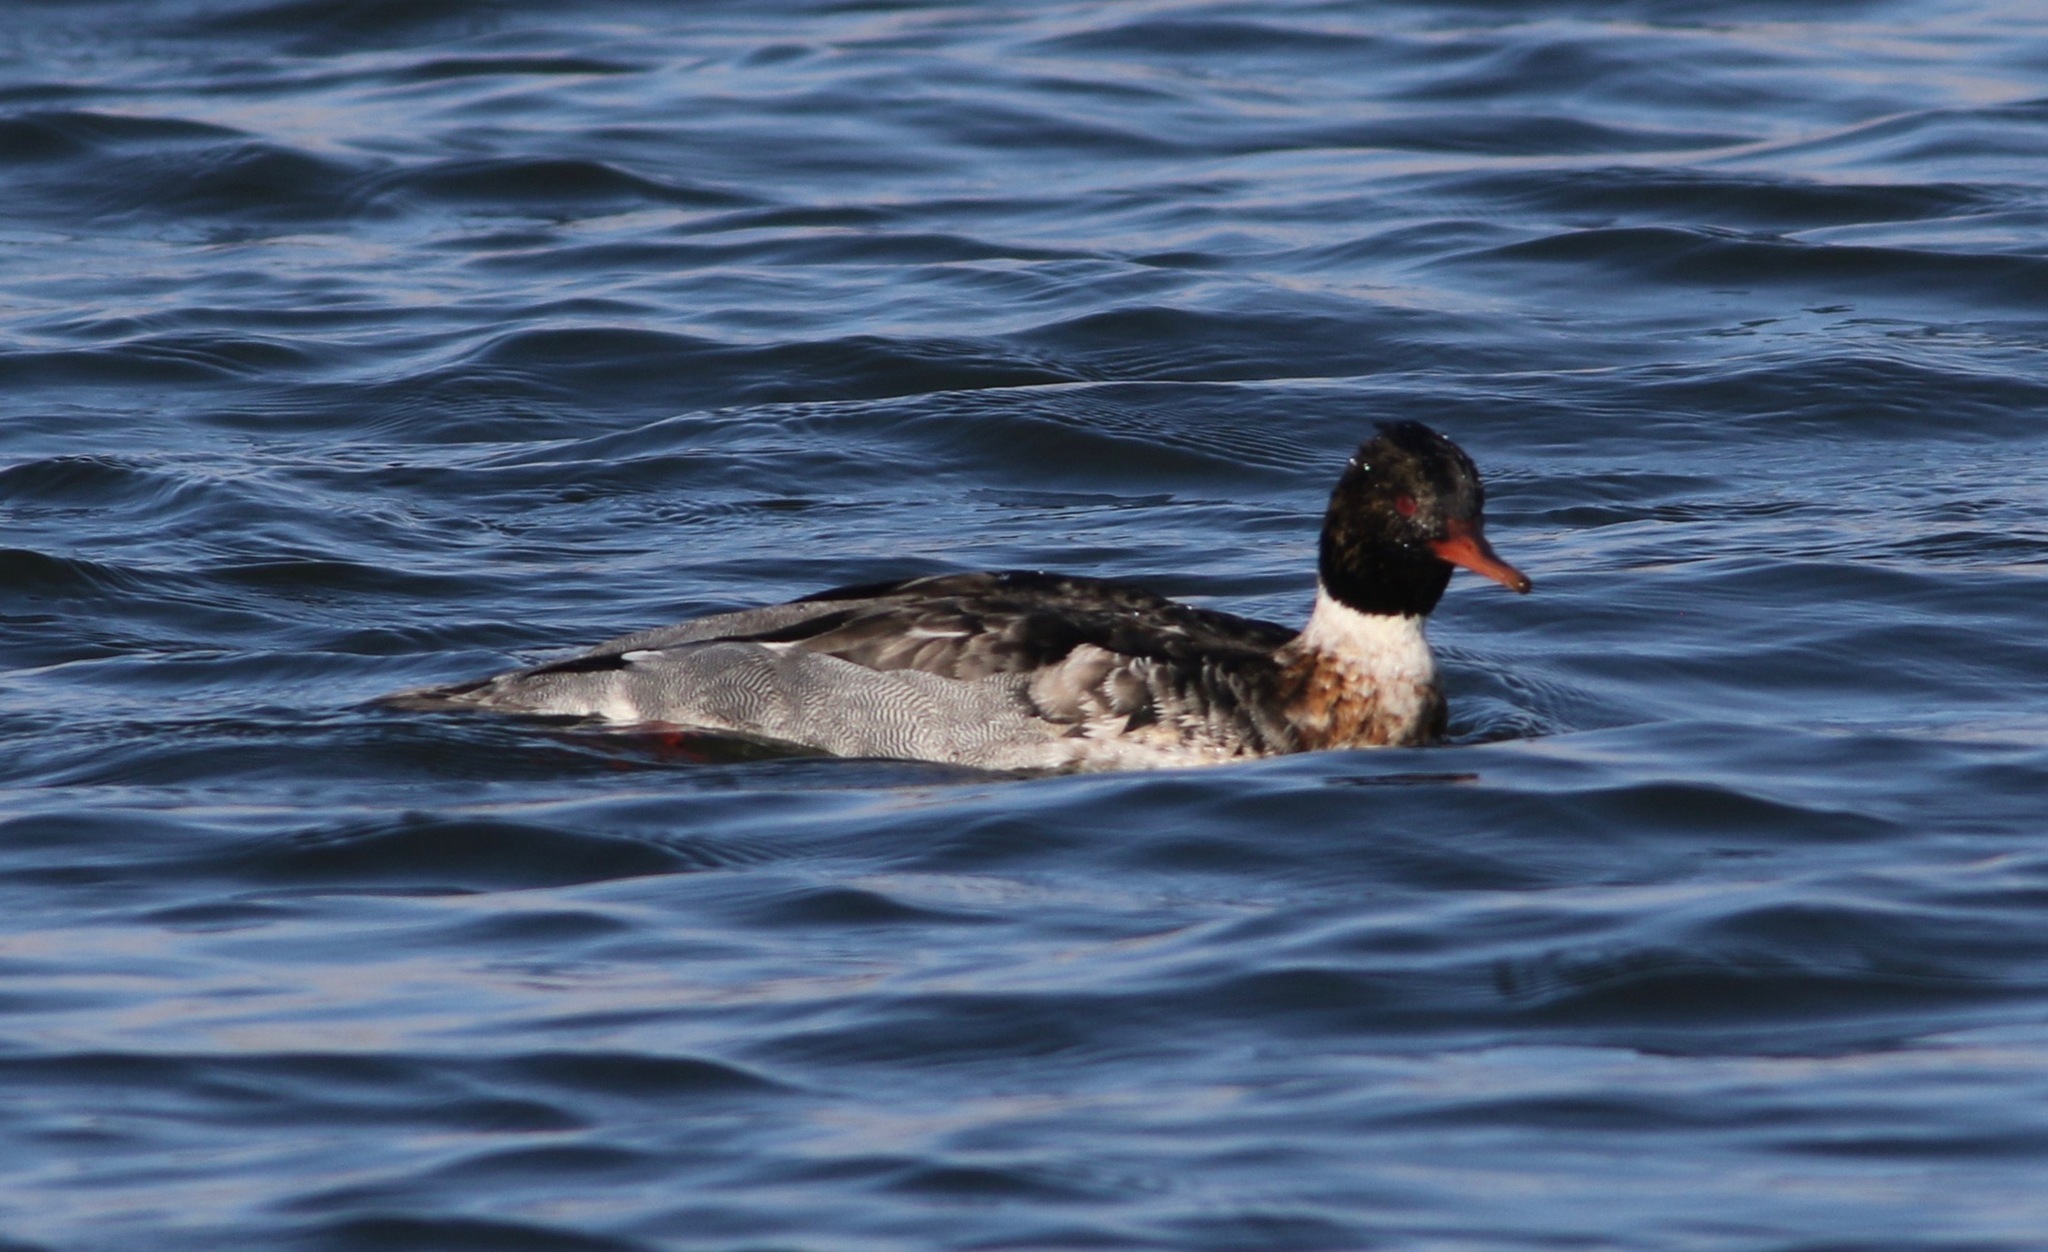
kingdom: Animalia
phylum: Chordata
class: Aves
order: Anseriformes
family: Anatidae
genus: Mergus
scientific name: Mergus serrator
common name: Red-breasted merganser
